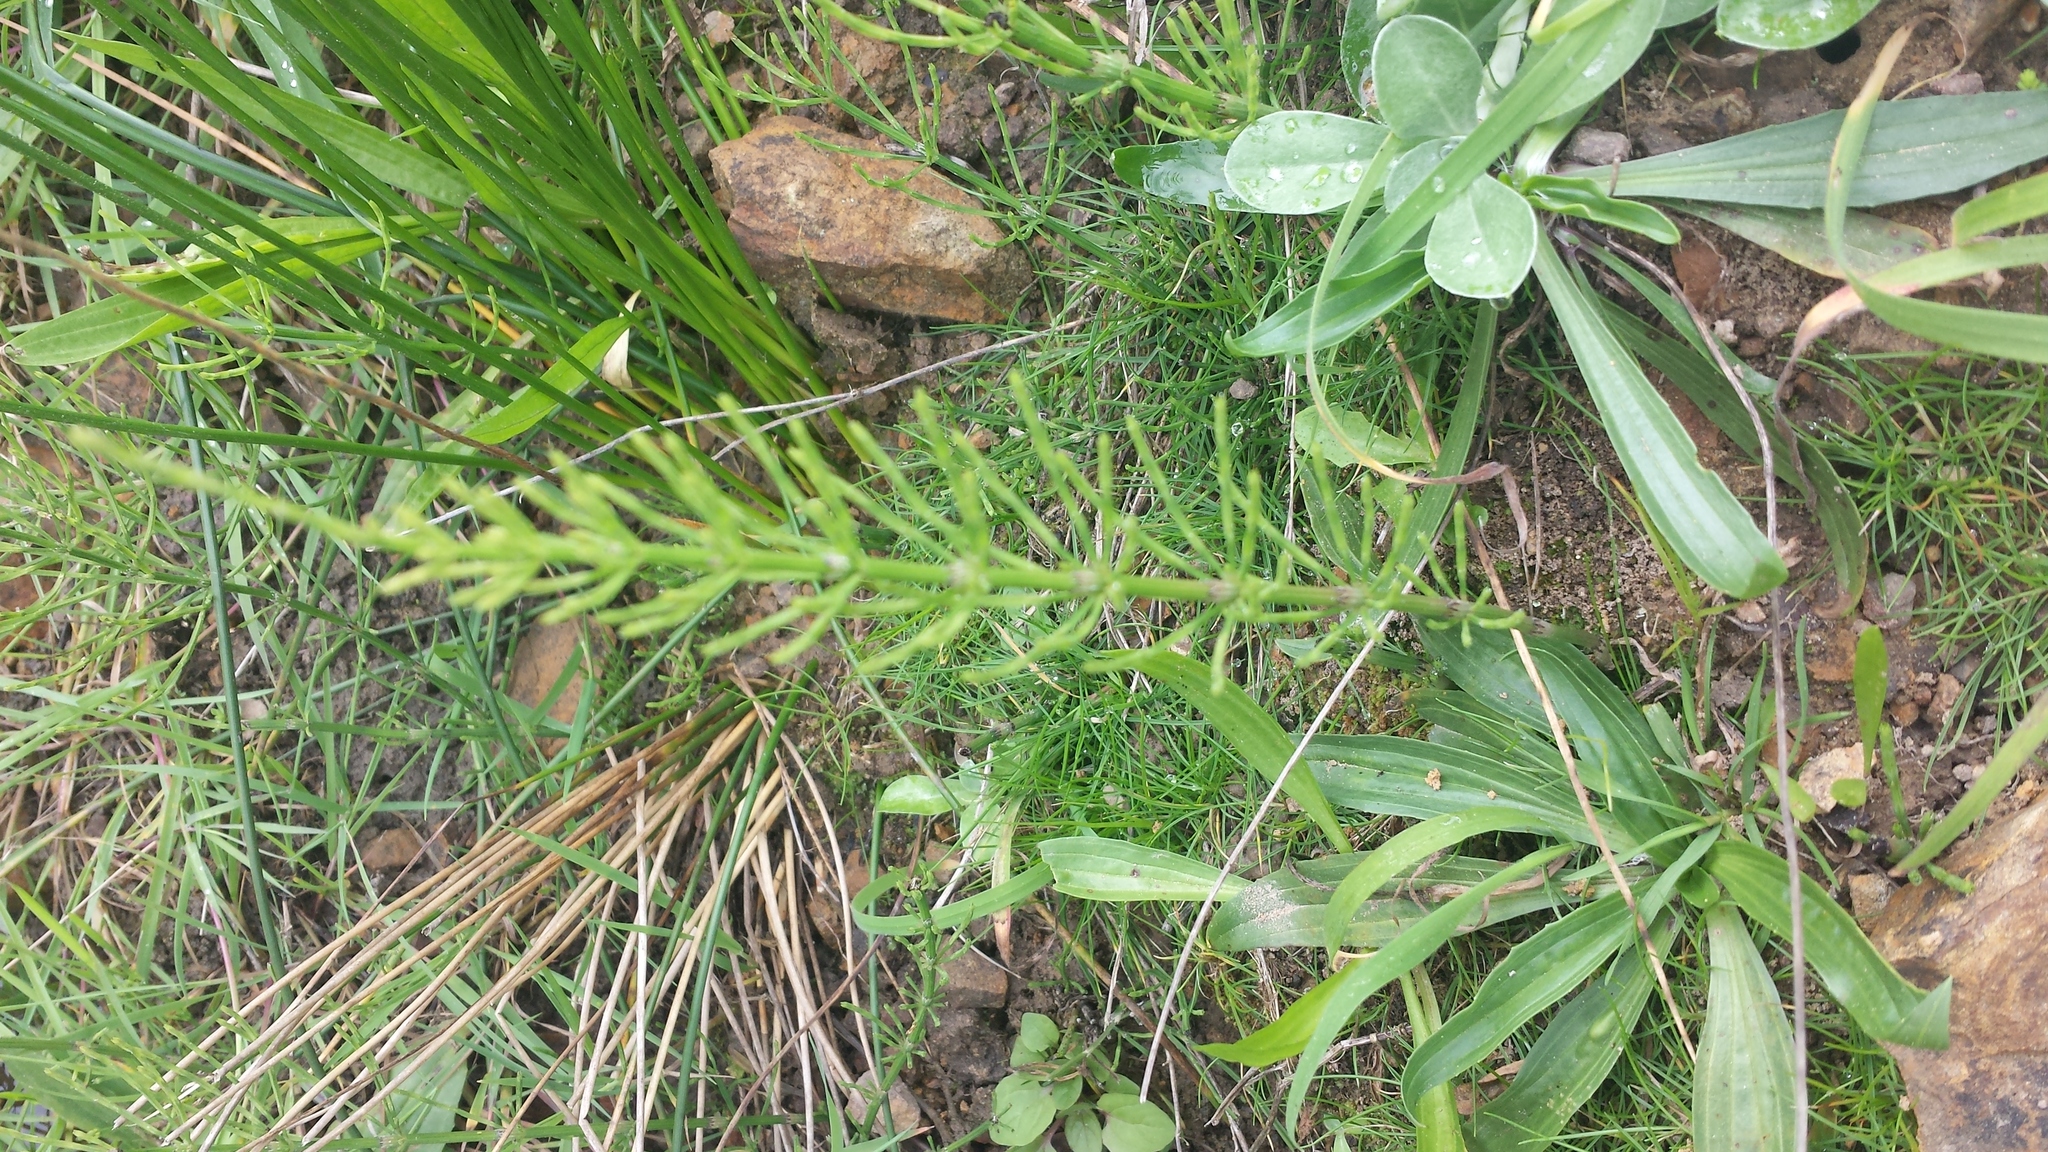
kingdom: Plantae
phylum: Tracheophyta
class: Polypodiopsida
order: Equisetales
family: Equisetaceae
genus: Equisetum
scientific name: Equisetum arvense
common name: Field horsetail
